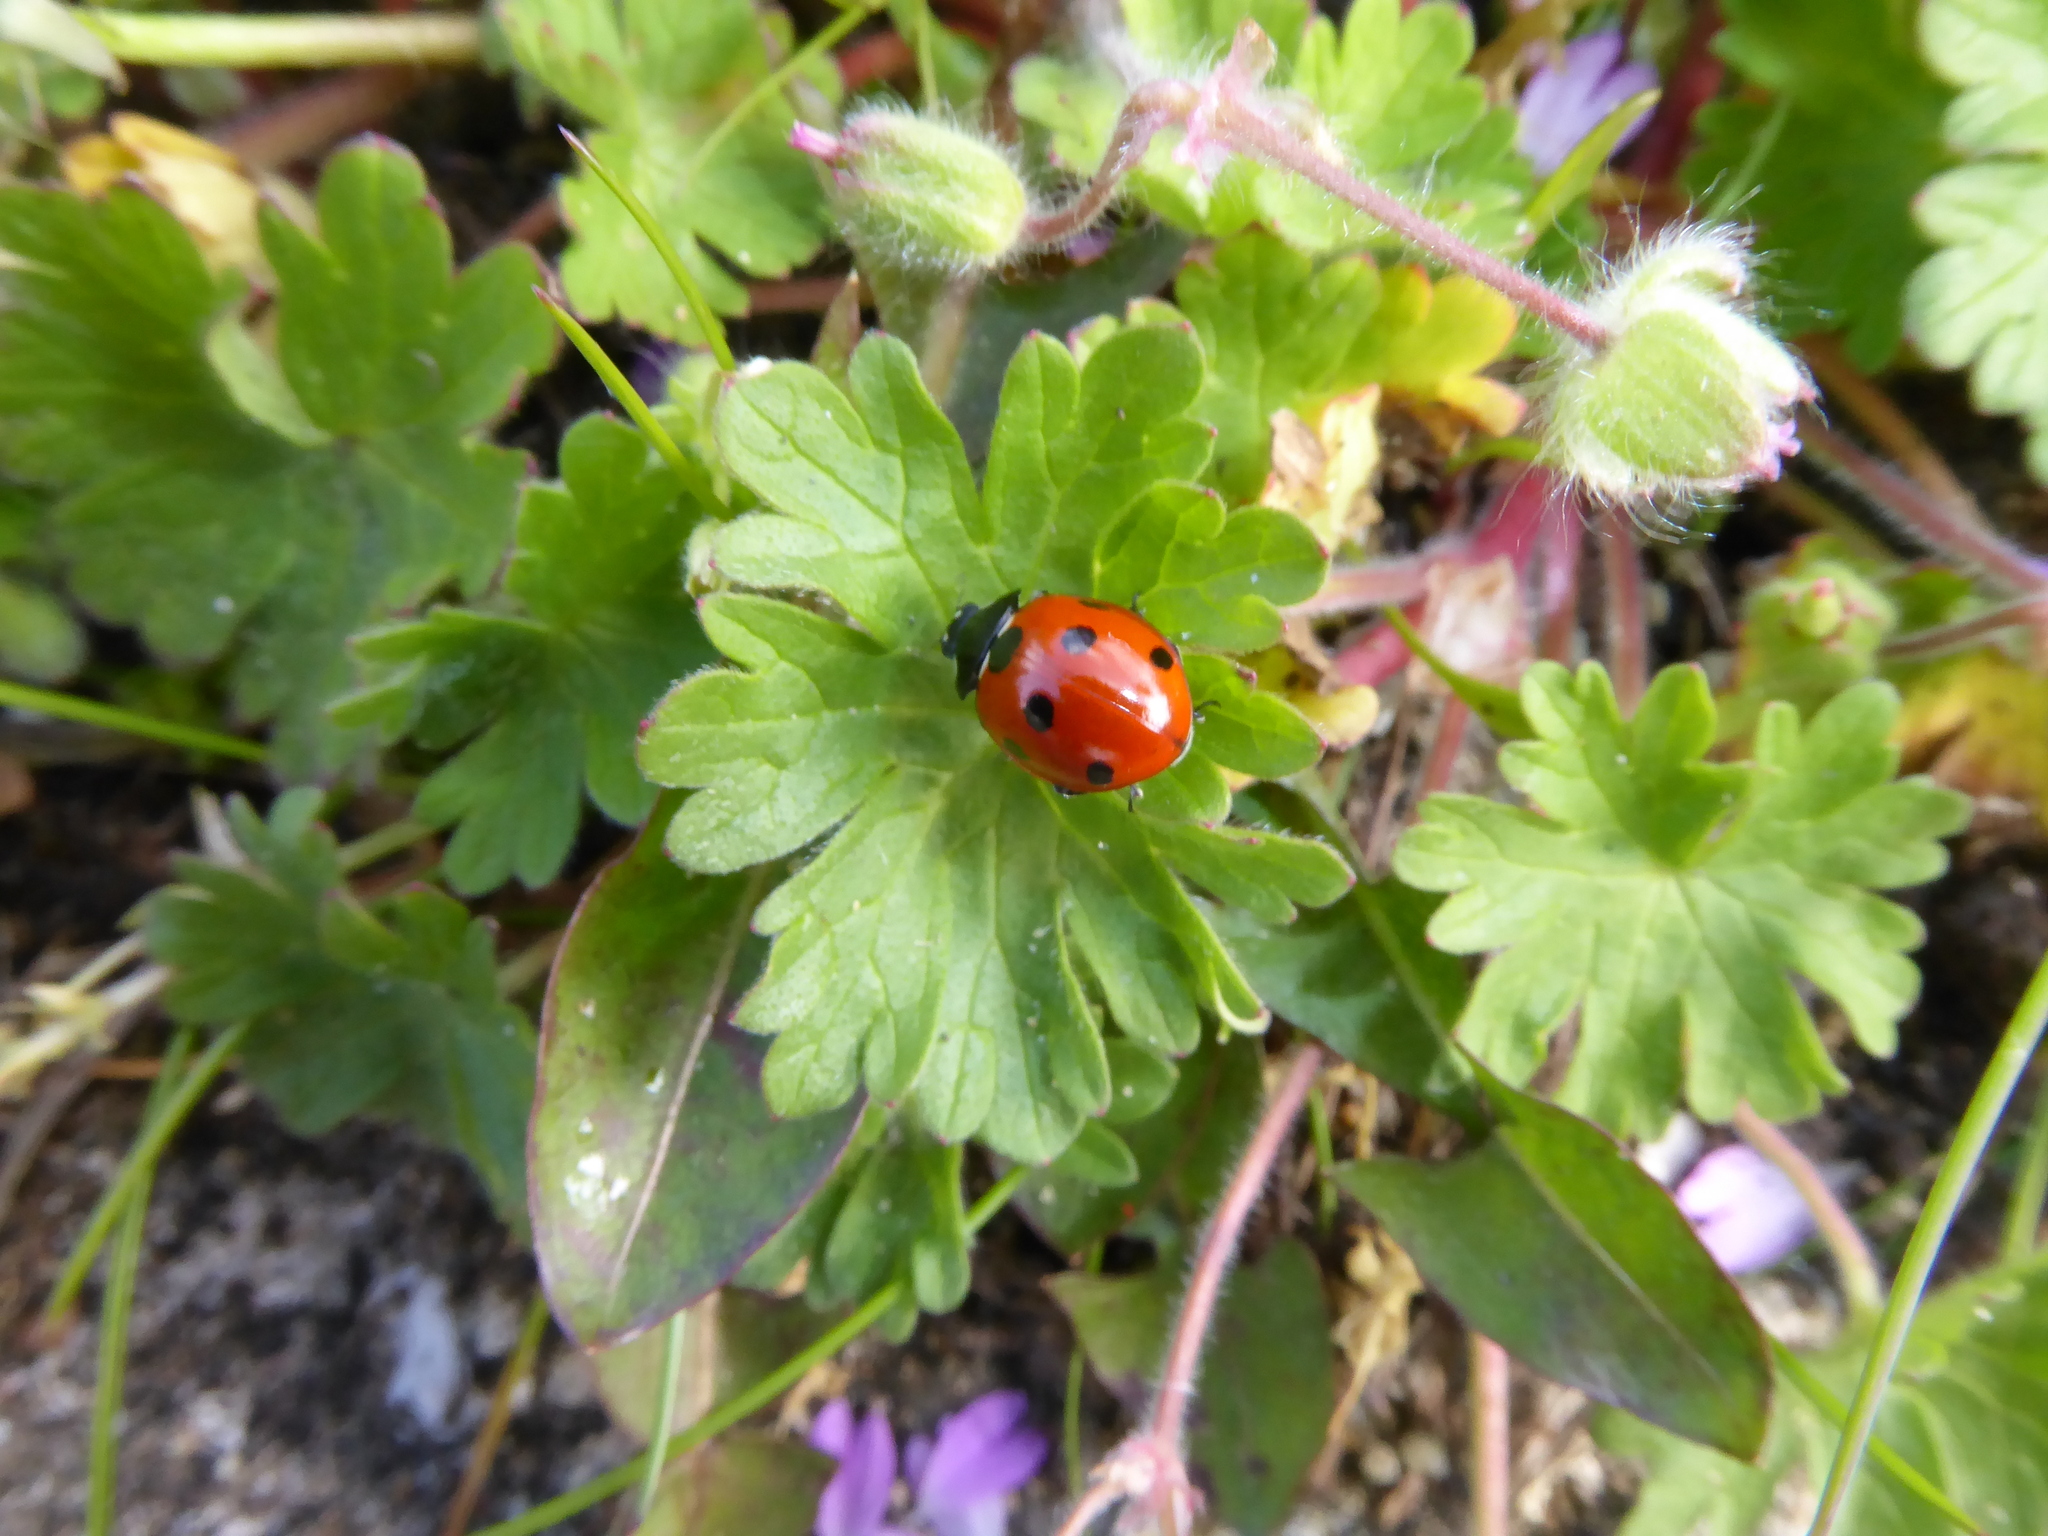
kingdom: Animalia
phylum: Arthropoda
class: Insecta
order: Coleoptera
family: Coccinellidae
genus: Coccinella
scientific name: Coccinella septempunctata
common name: Sevenspotted lady beetle
